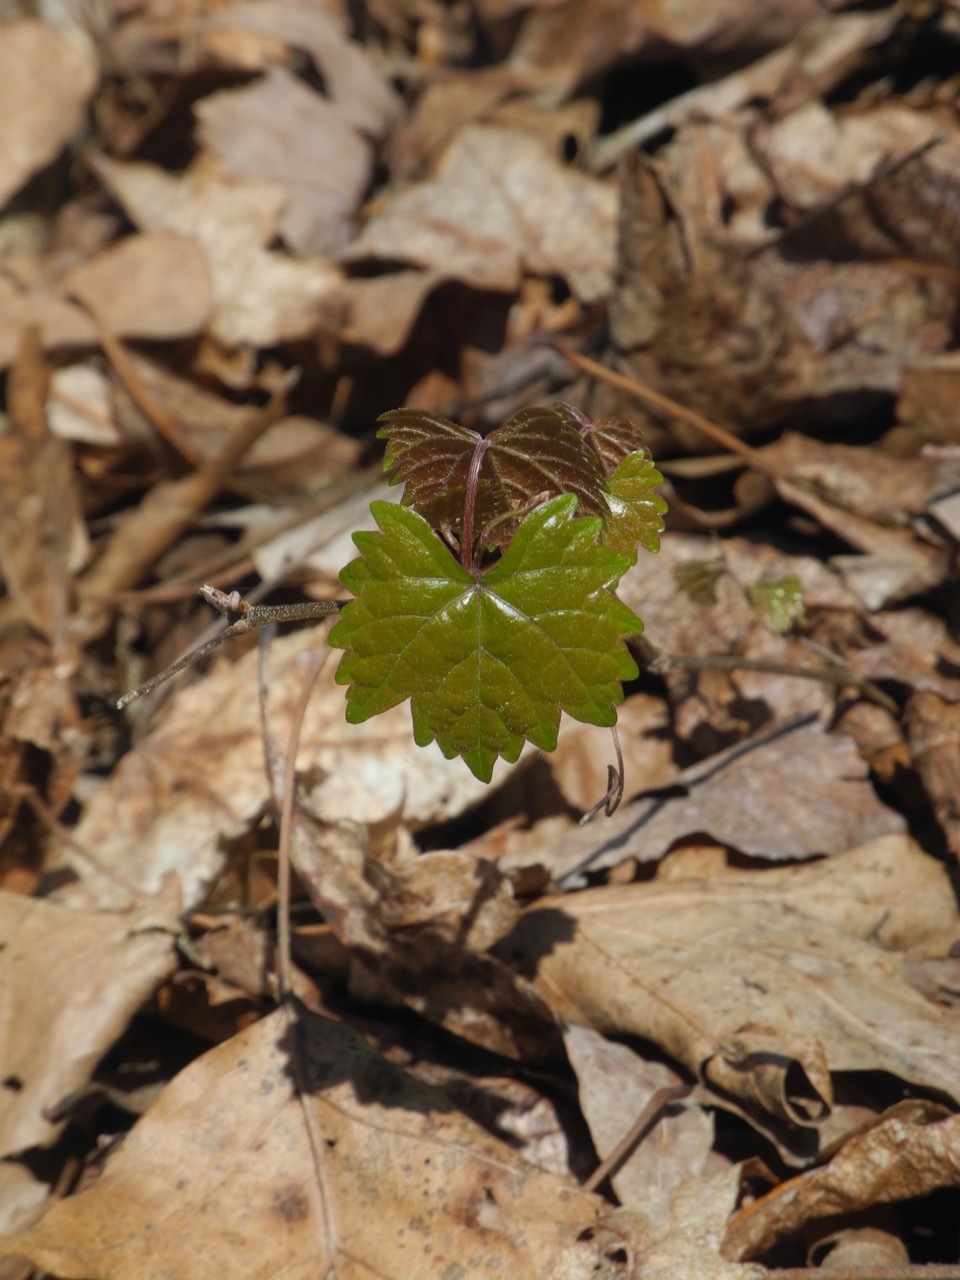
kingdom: Plantae
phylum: Tracheophyta
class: Magnoliopsida
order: Vitales
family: Vitaceae
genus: Vitis
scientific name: Vitis rotundifolia
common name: Muscadine grape
